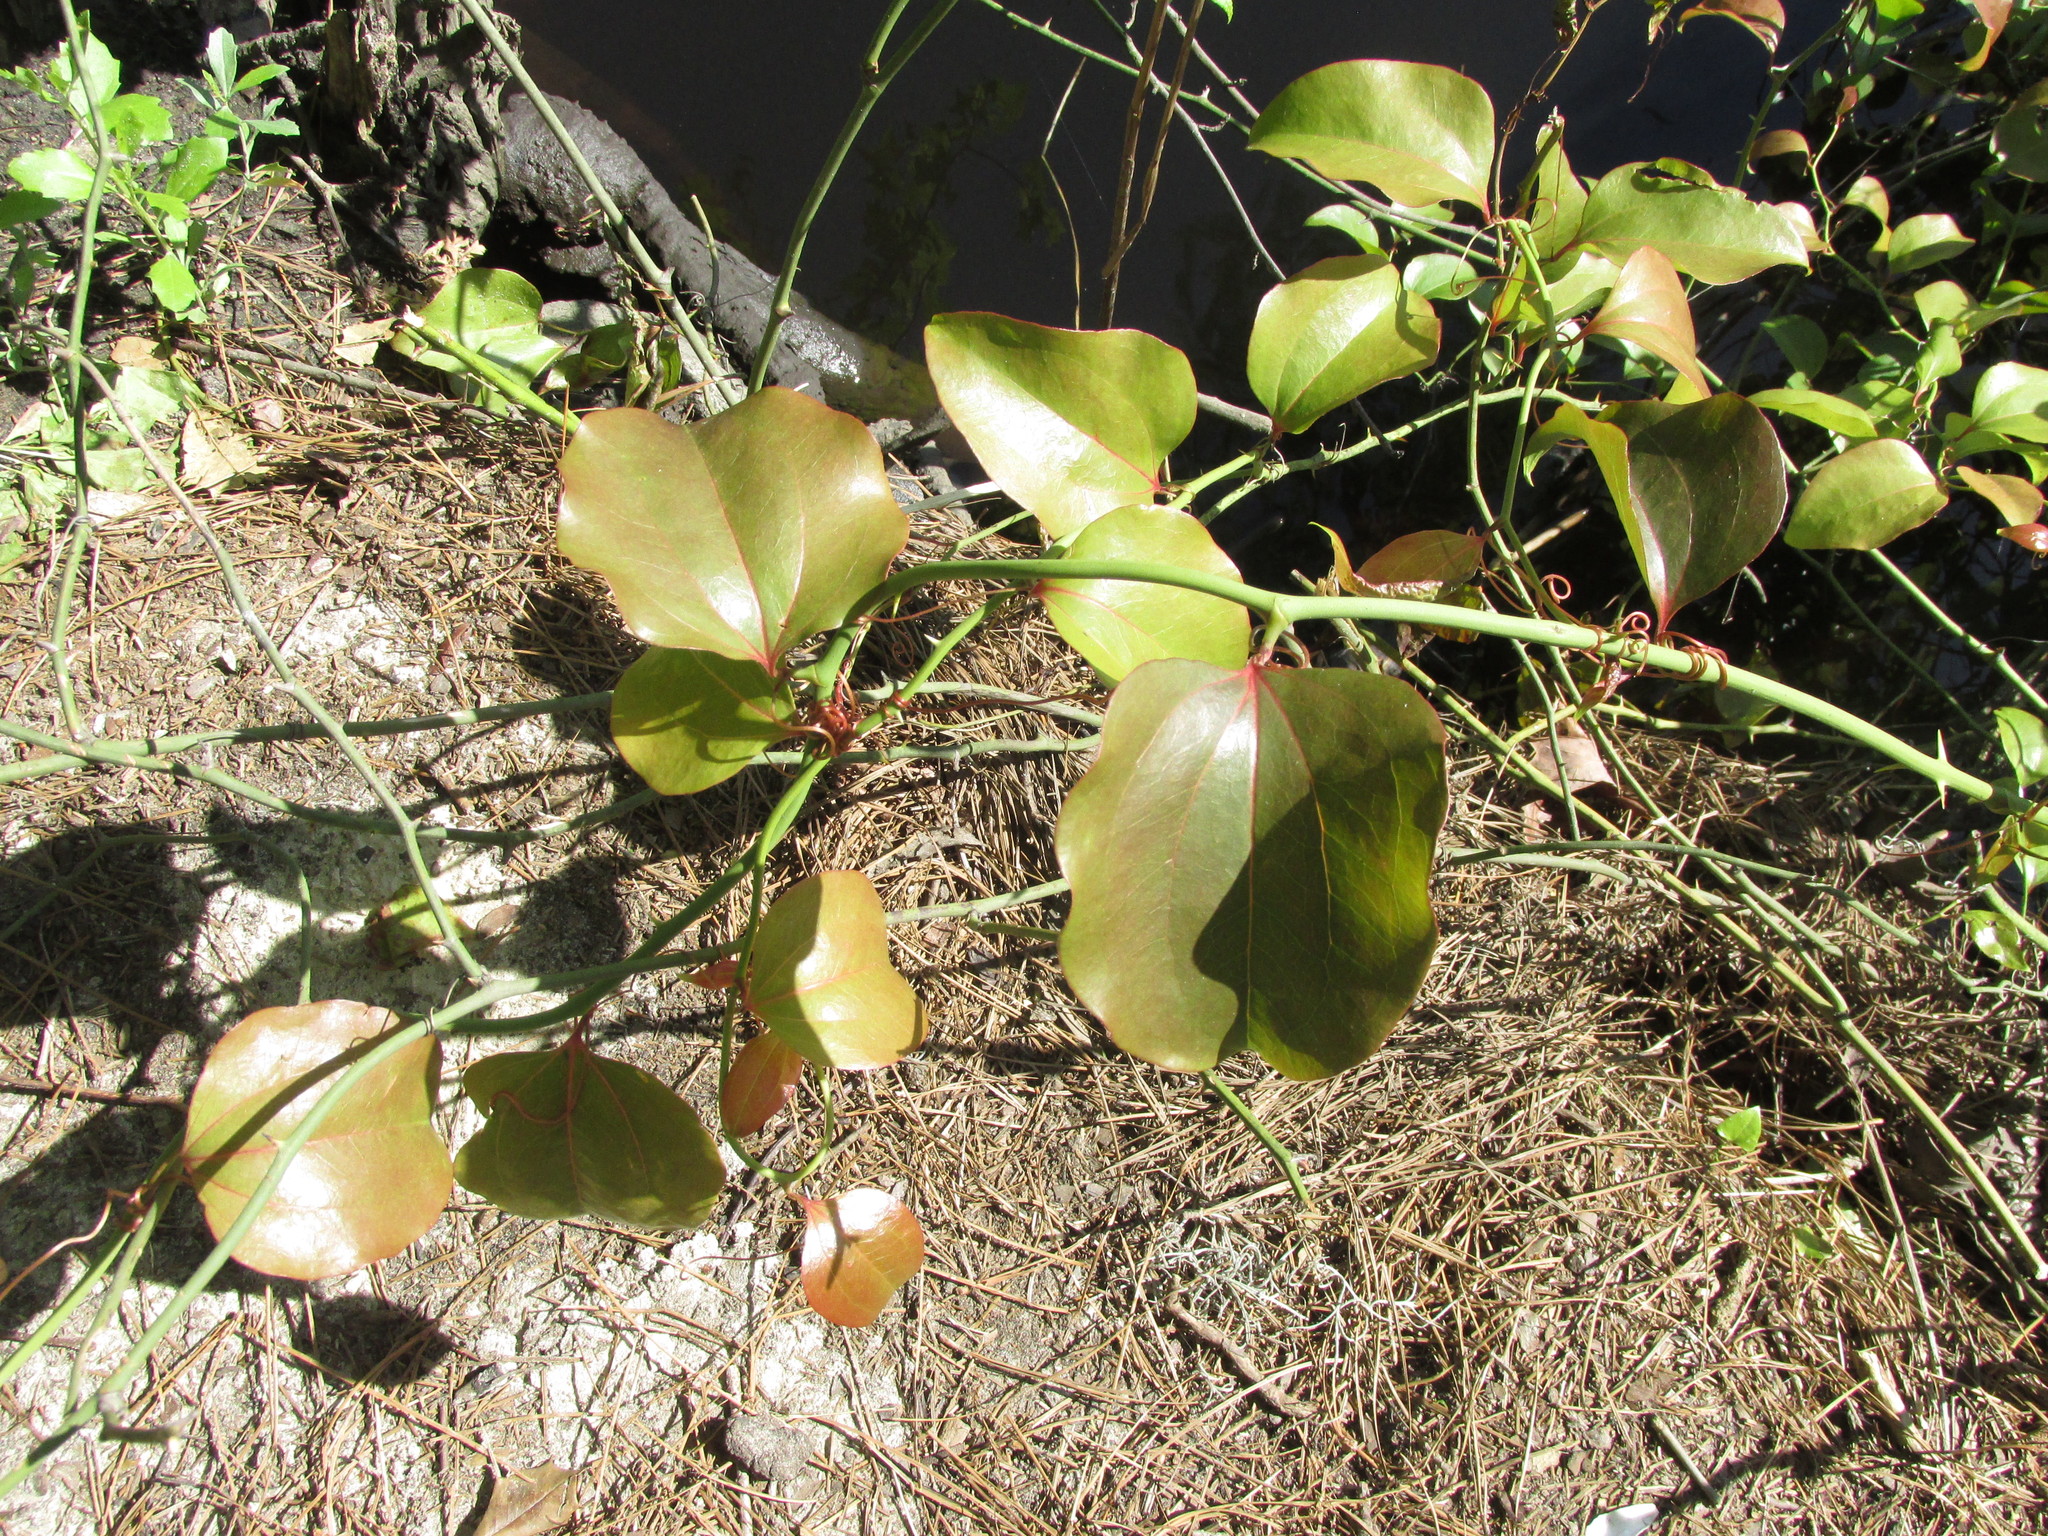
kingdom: Plantae
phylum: Tracheophyta
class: Liliopsida
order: Liliales
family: Smilacaceae
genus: Smilax
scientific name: Smilax rotundifolia
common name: Bullbriar
